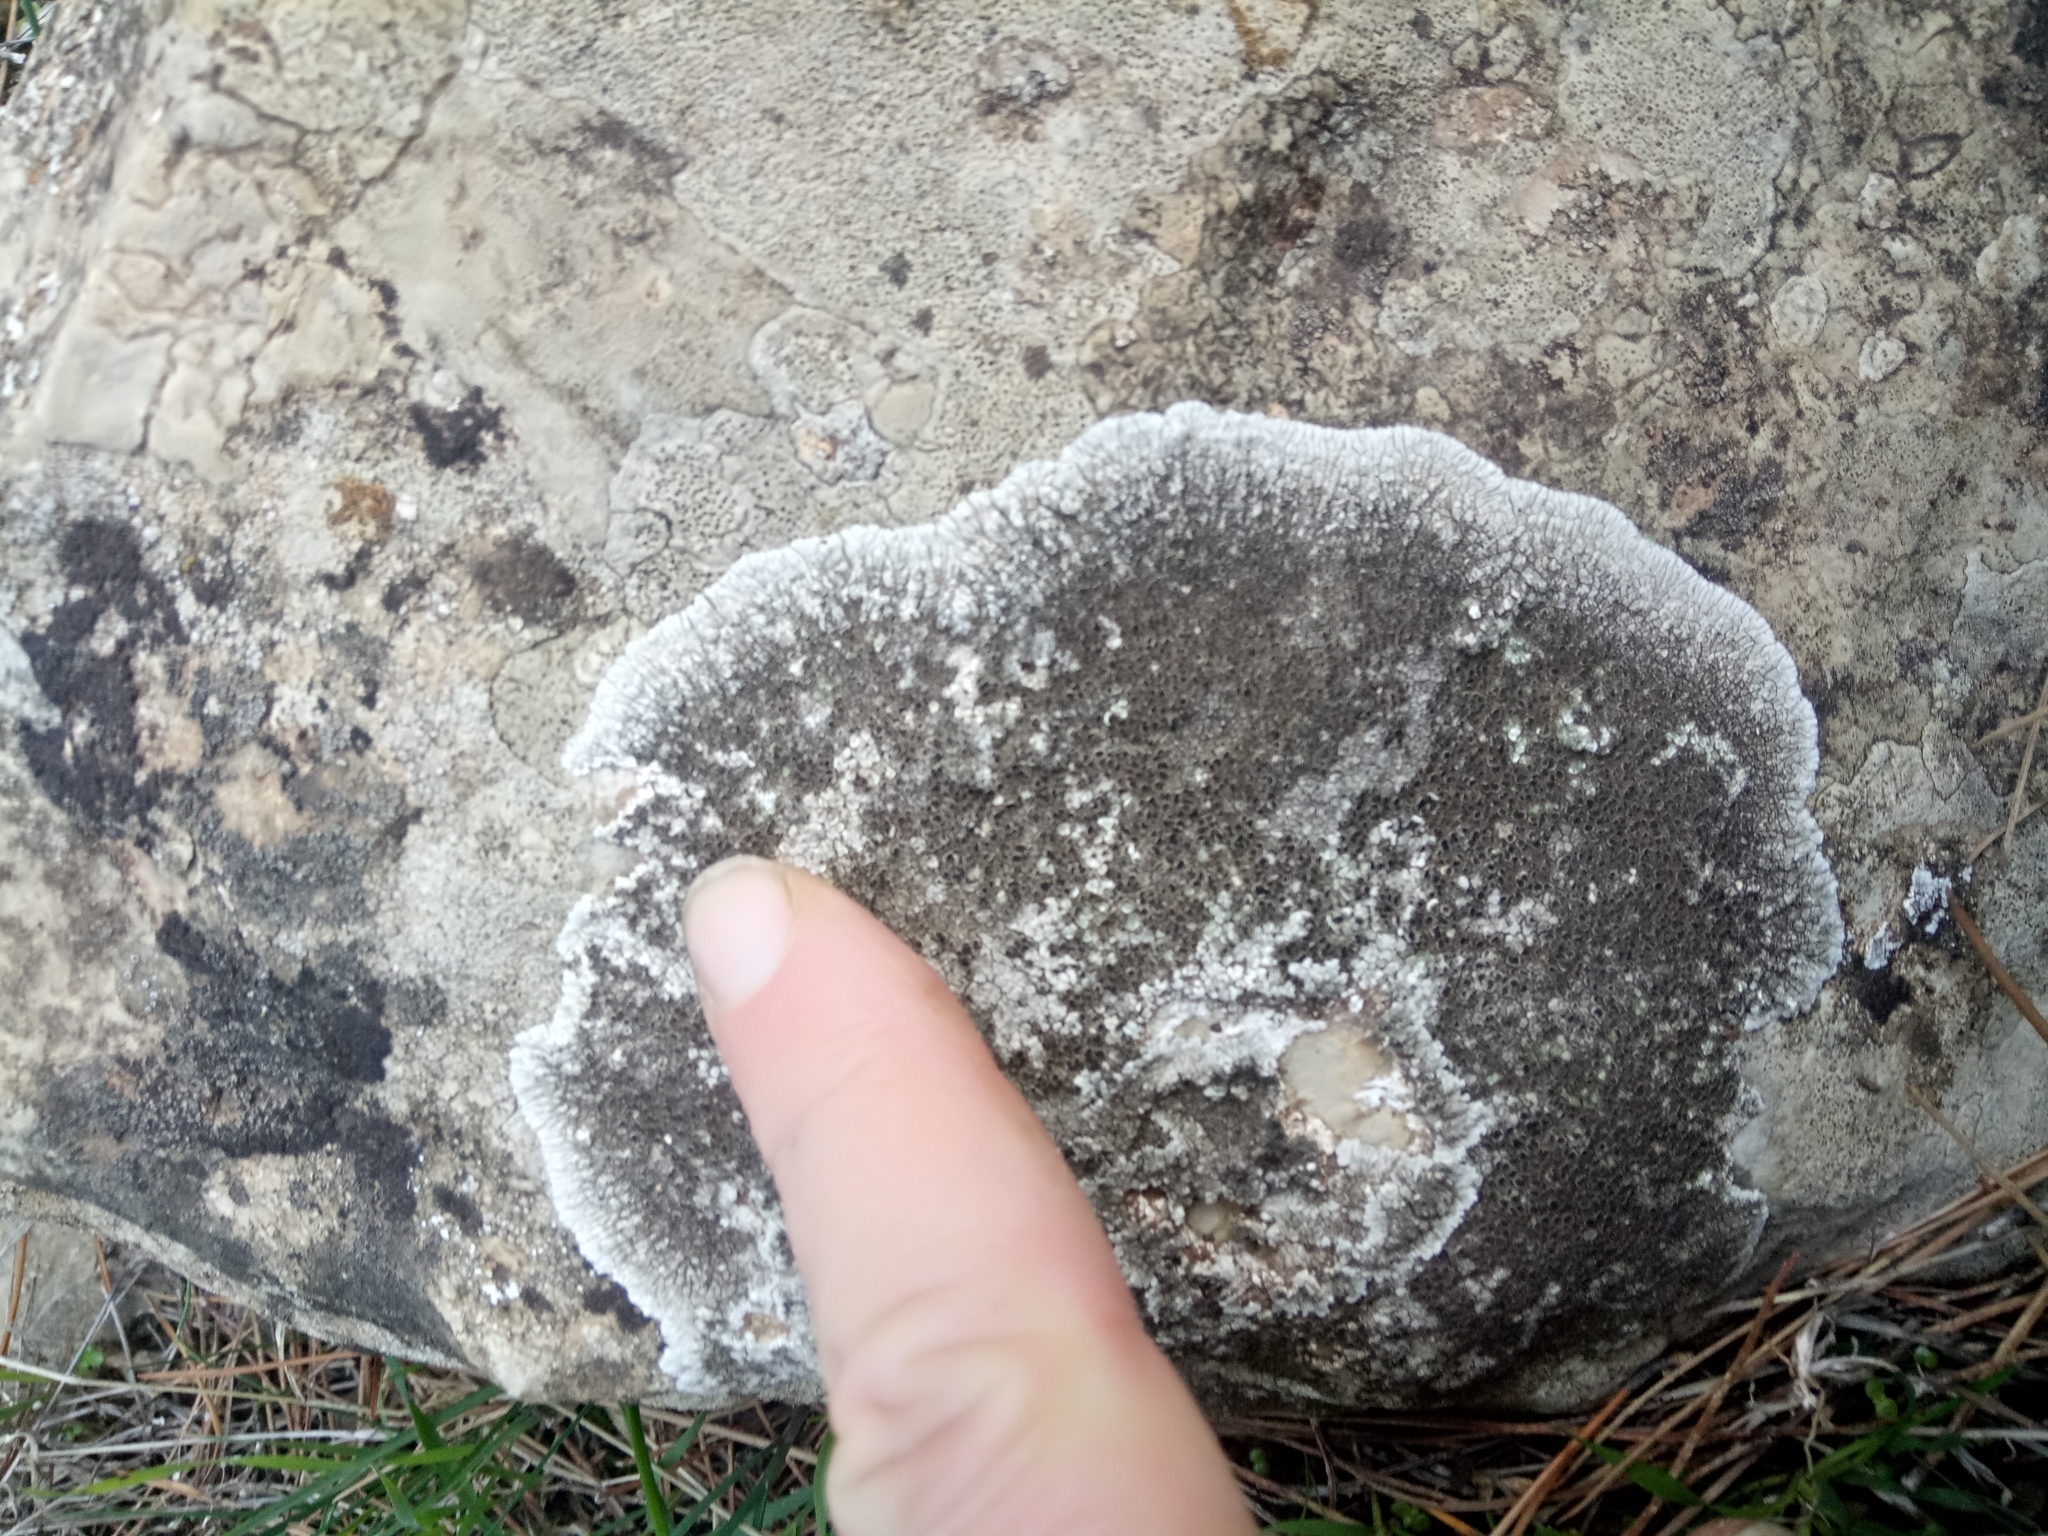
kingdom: Fungi
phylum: Ascomycota
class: Lecanoromycetes
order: Pertusariales
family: Megasporaceae
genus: Lobothallia
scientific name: Lobothallia radiosa
